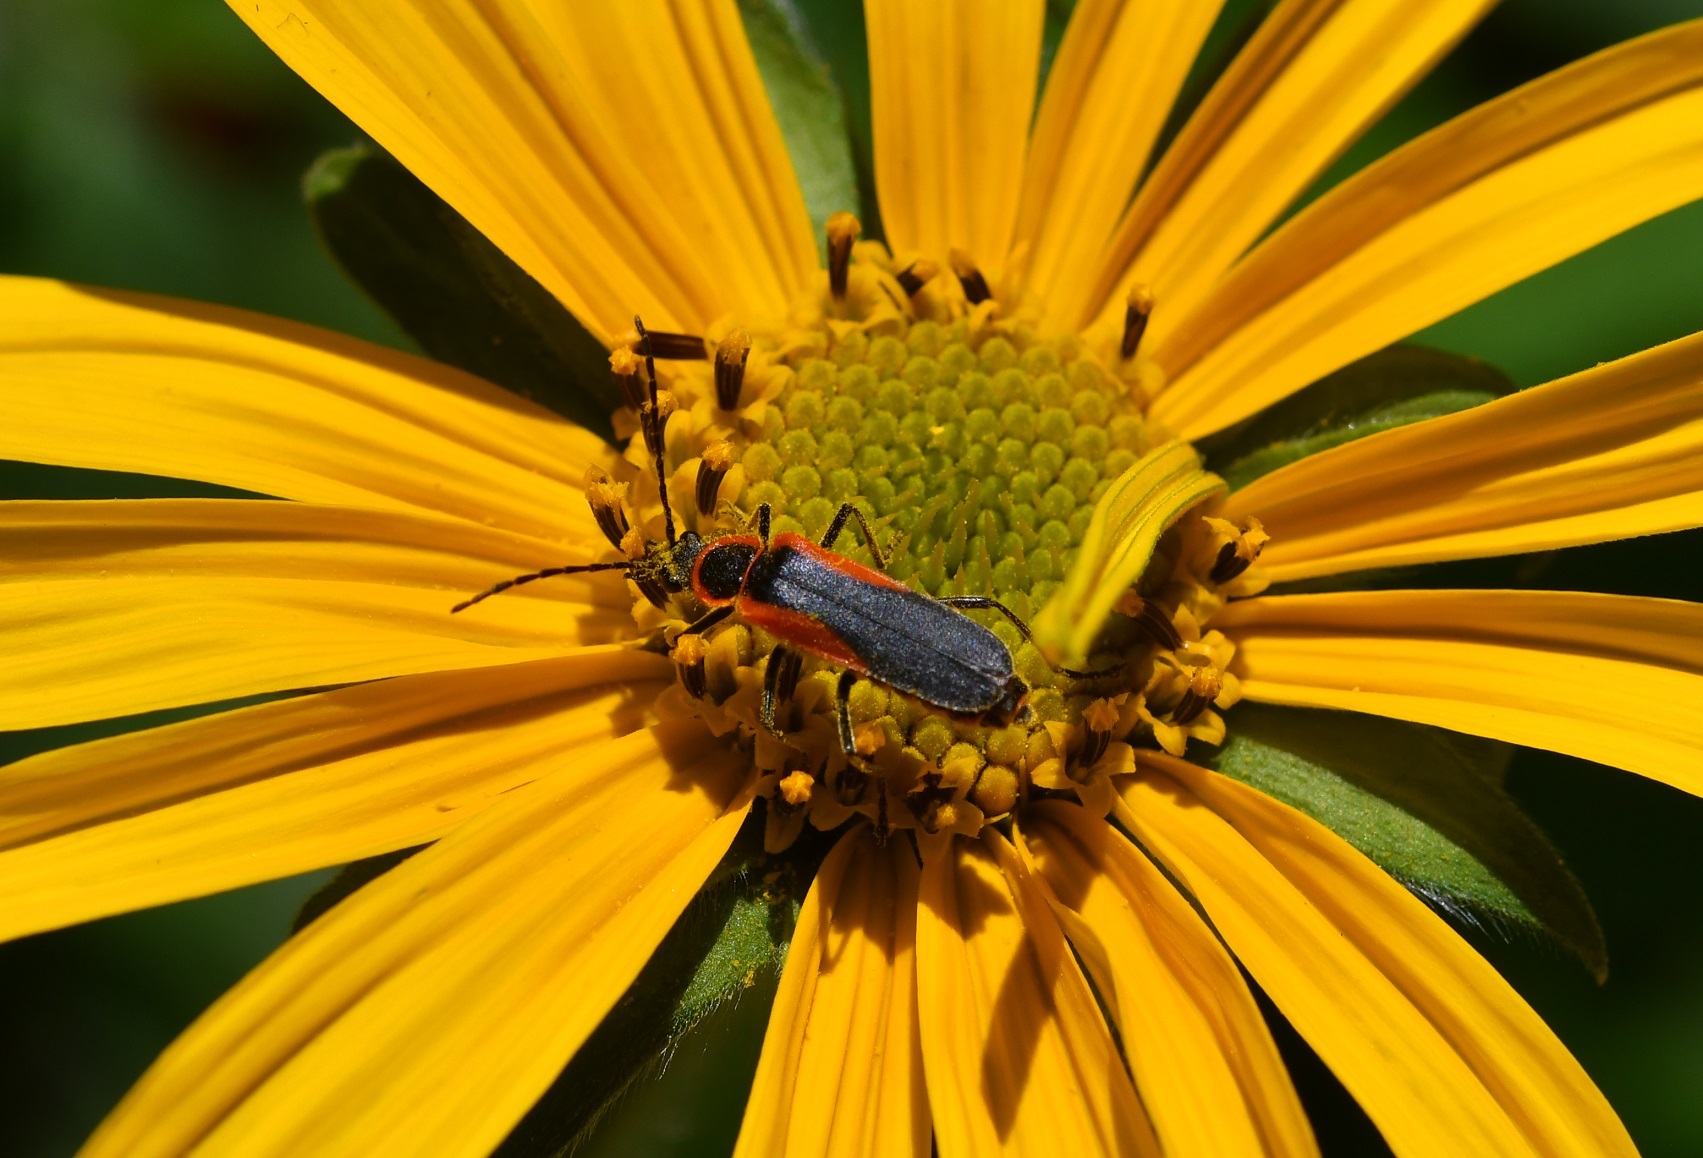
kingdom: Animalia
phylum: Arthropoda
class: Insecta
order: Coleoptera
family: Cantharidae
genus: Chauliognathus
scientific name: Chauliognathus limbicollis
